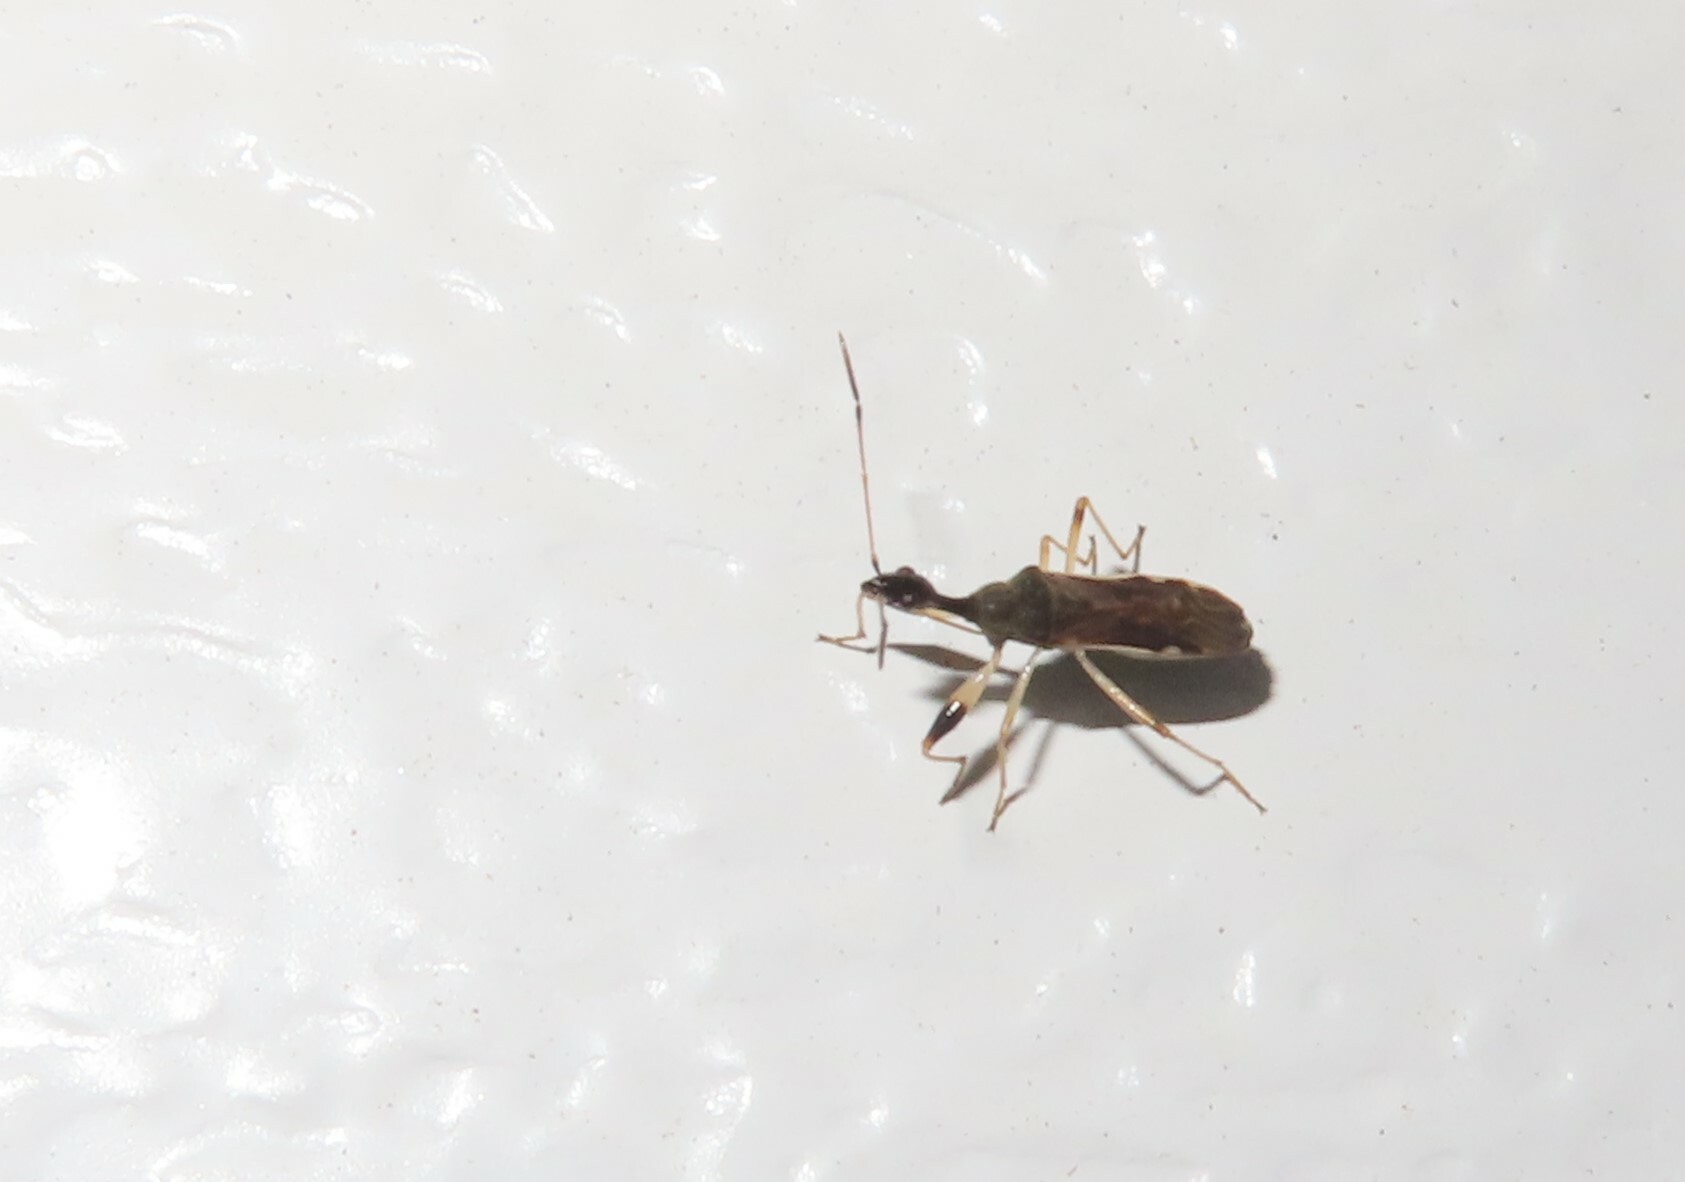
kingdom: Animalia
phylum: Arthropoda
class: Insecta
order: Hemiptera
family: Rhyparochromidae
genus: Myodocha
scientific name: Myodocha serripes
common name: Long-necked seed bug
